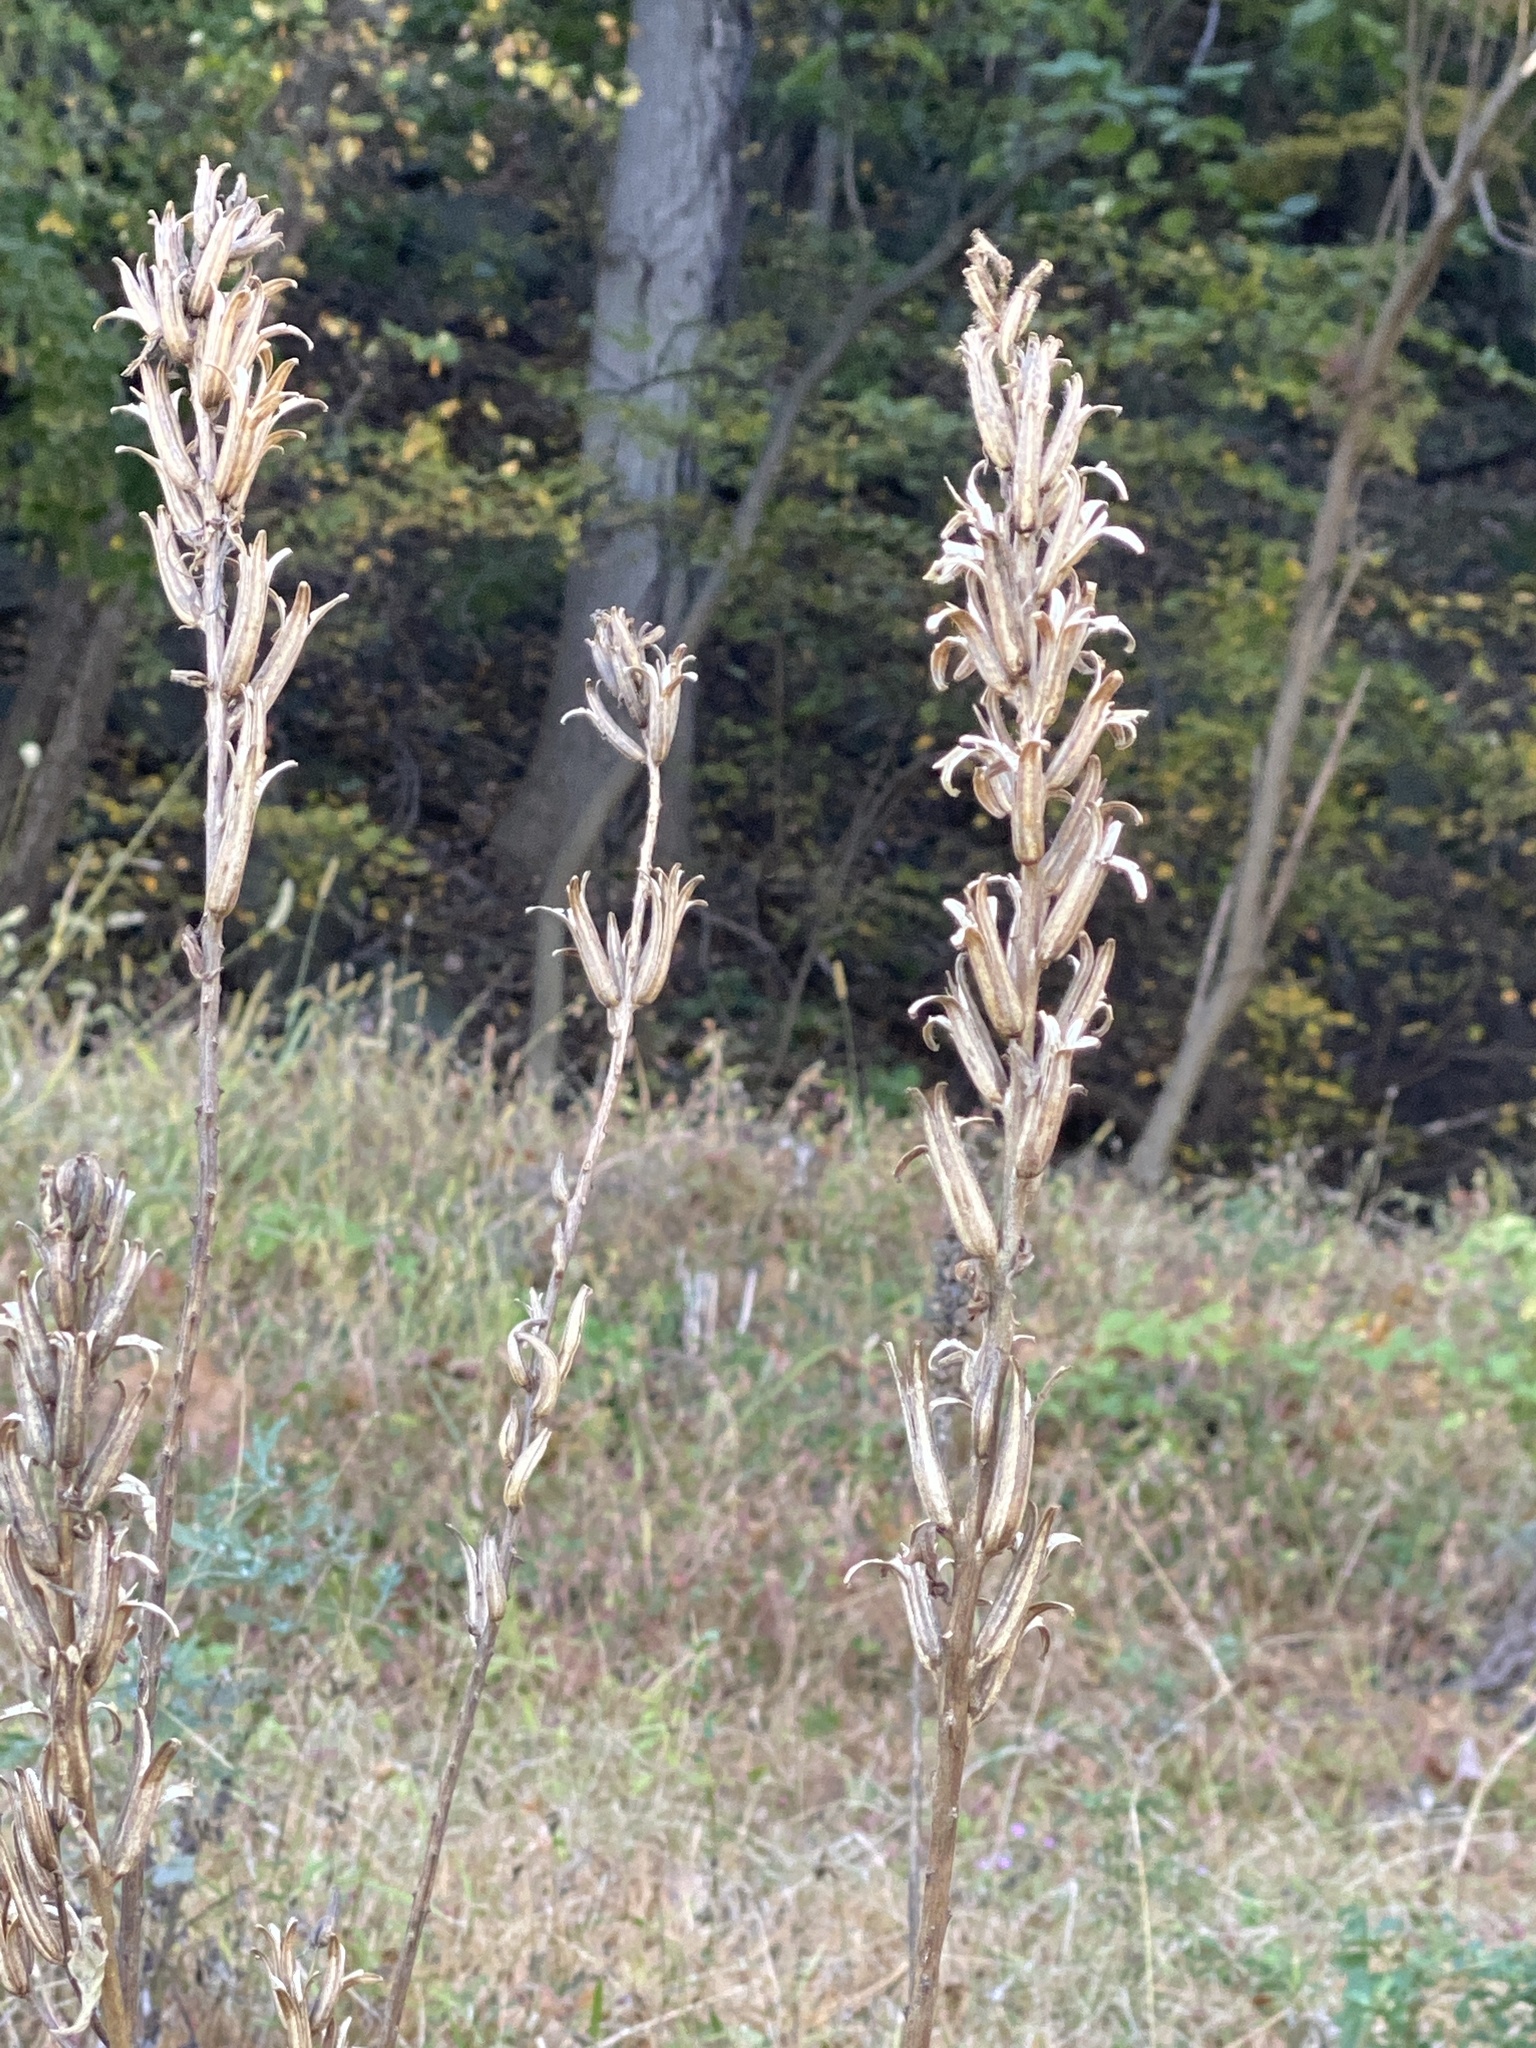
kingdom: Plantae
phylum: Tracheophyta
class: Magnoliopsida
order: Myrtales
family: Onagraceae
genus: Oenothera
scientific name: Oenothera biennis
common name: Common evening-primrose
